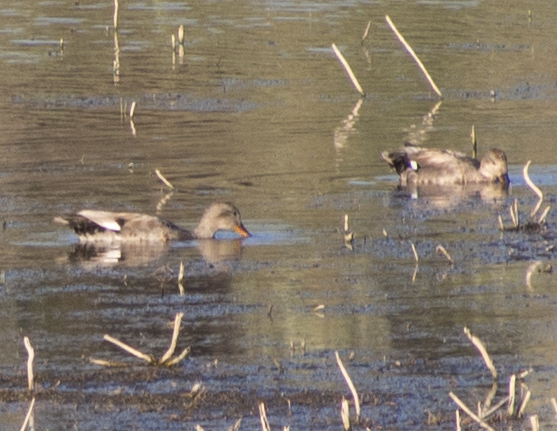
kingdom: Animalia
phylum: Chordata
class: Aves
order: Anseriformes
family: Anatidae
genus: Mareca
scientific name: Mareca strepera
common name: Gadwall
